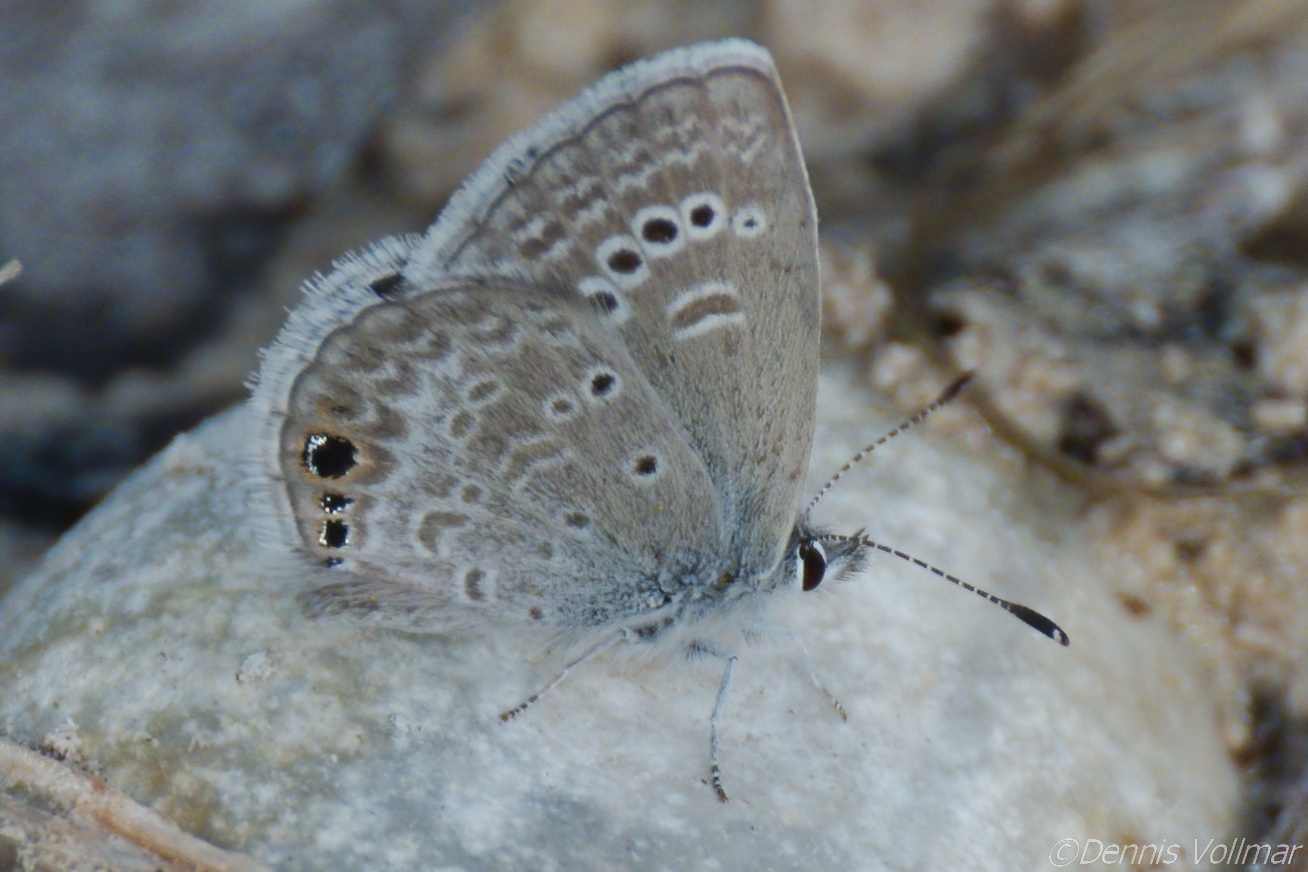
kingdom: Animalia
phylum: Arthropoda
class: Insecta
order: Lepidoptera
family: Lycaenidae
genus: Echinargus
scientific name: Echinargus isola
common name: Reakirt's blue
